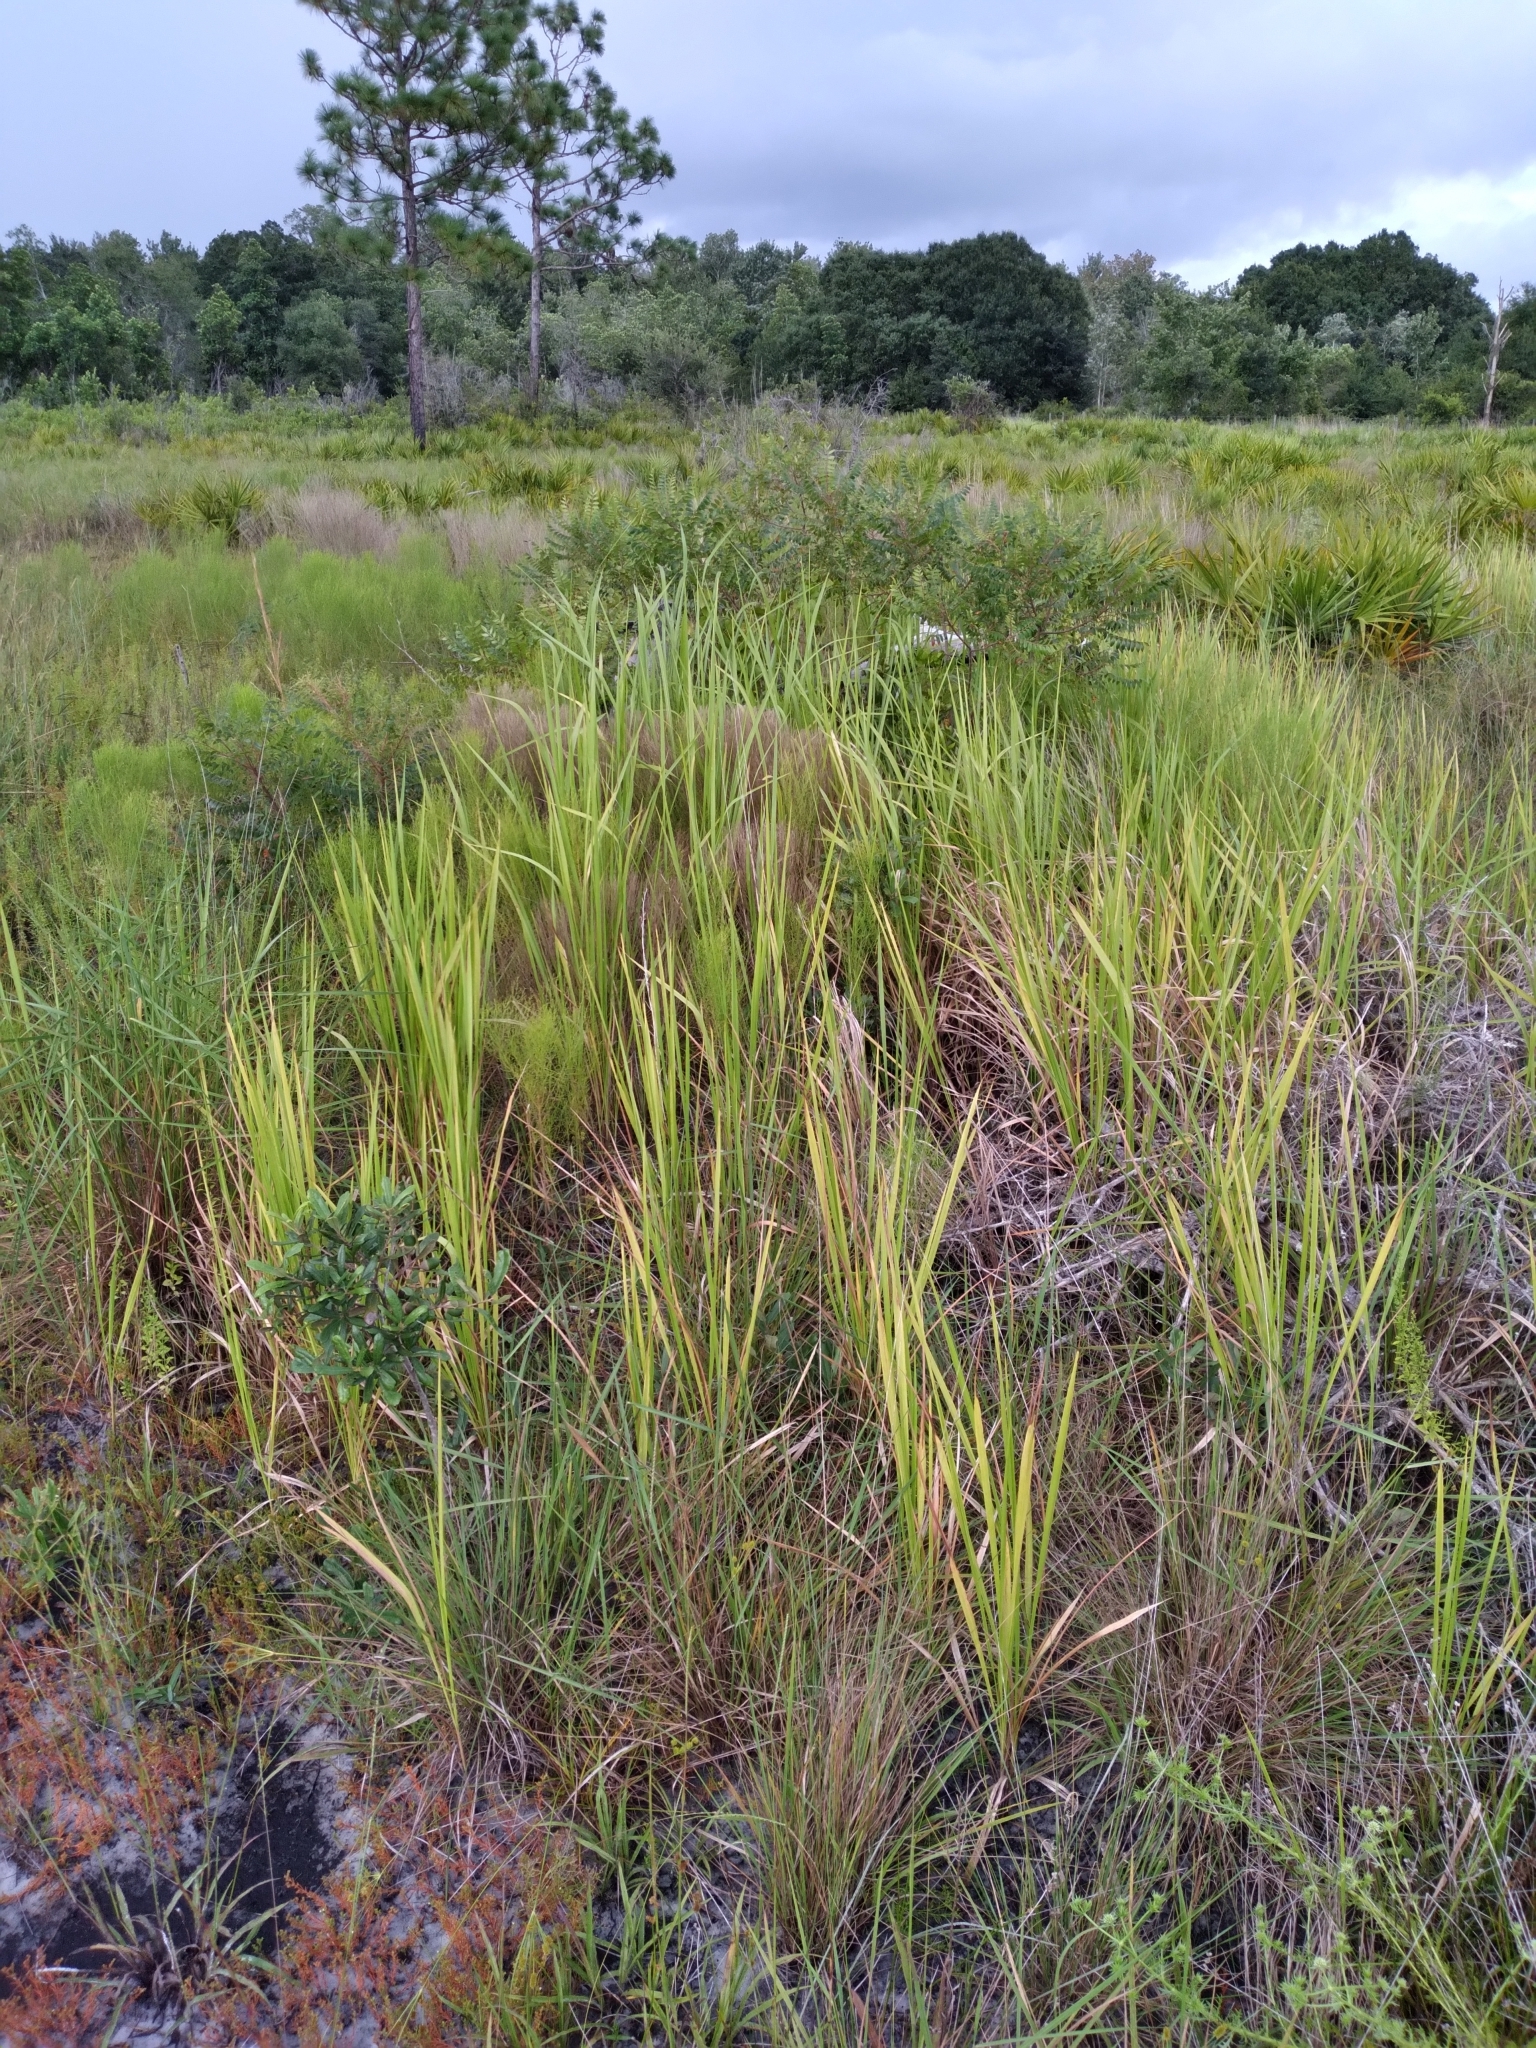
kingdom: Plantae
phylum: Tracheophyta
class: Liliopsida
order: Poales
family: Poaceae
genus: Imperata
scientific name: Imperata cylindrica
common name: Cogongrass
